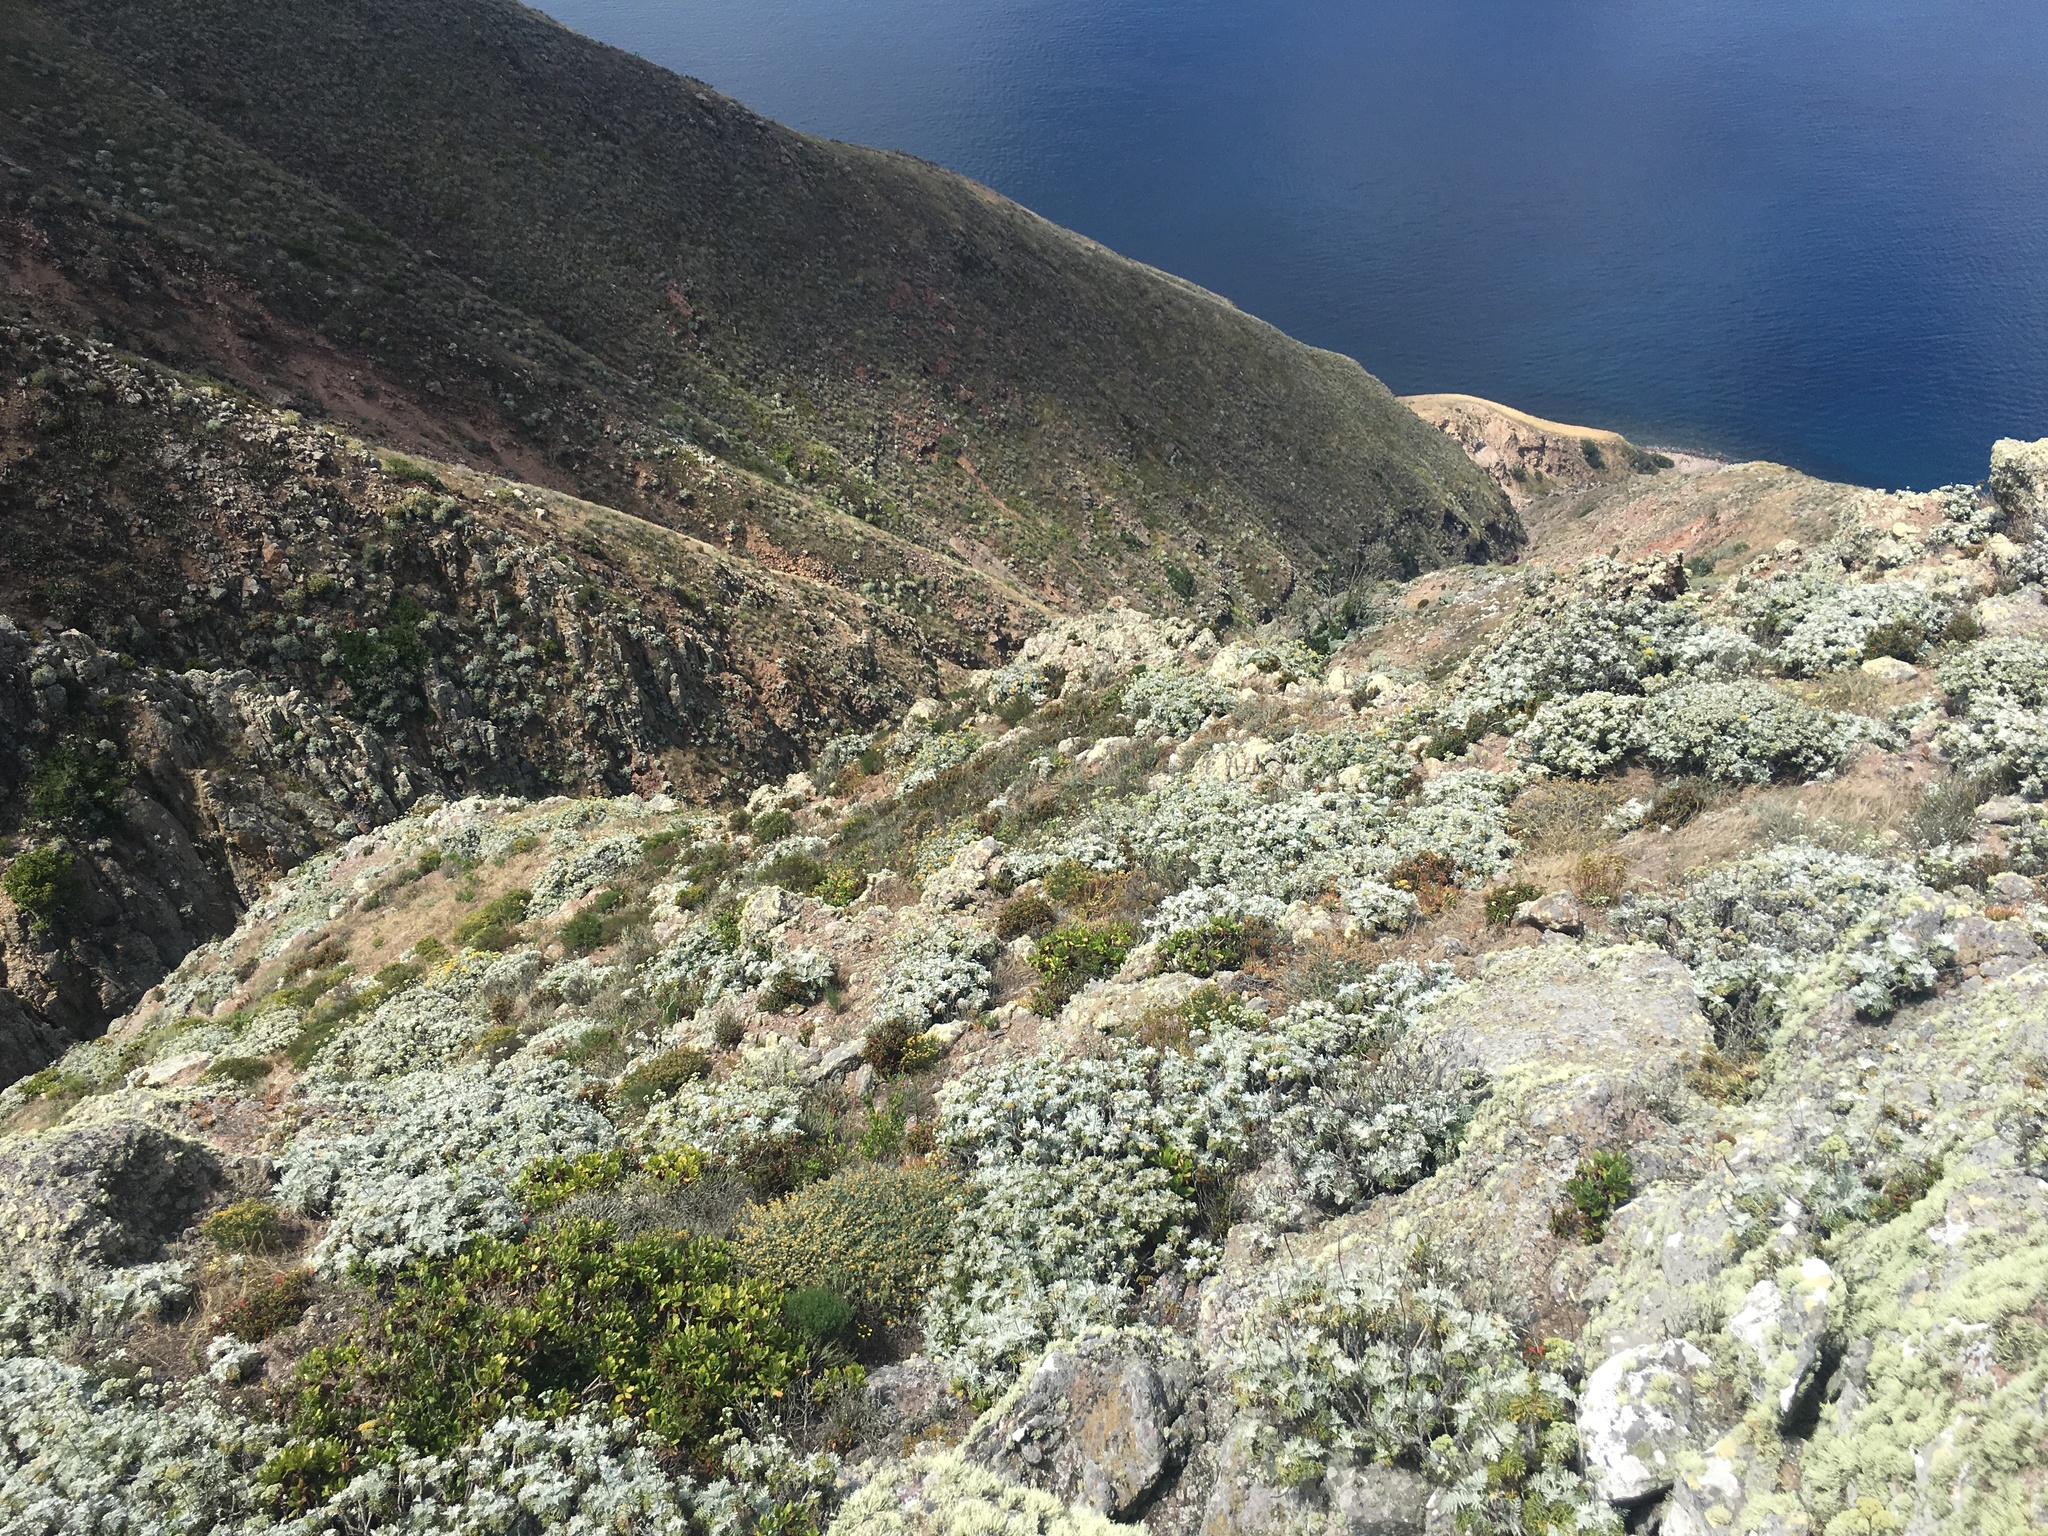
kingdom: Plantae
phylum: Tracheophyta
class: Magnoliopsida
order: Asterales
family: Asteraceae
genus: Constancea
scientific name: Constancea nevinii
